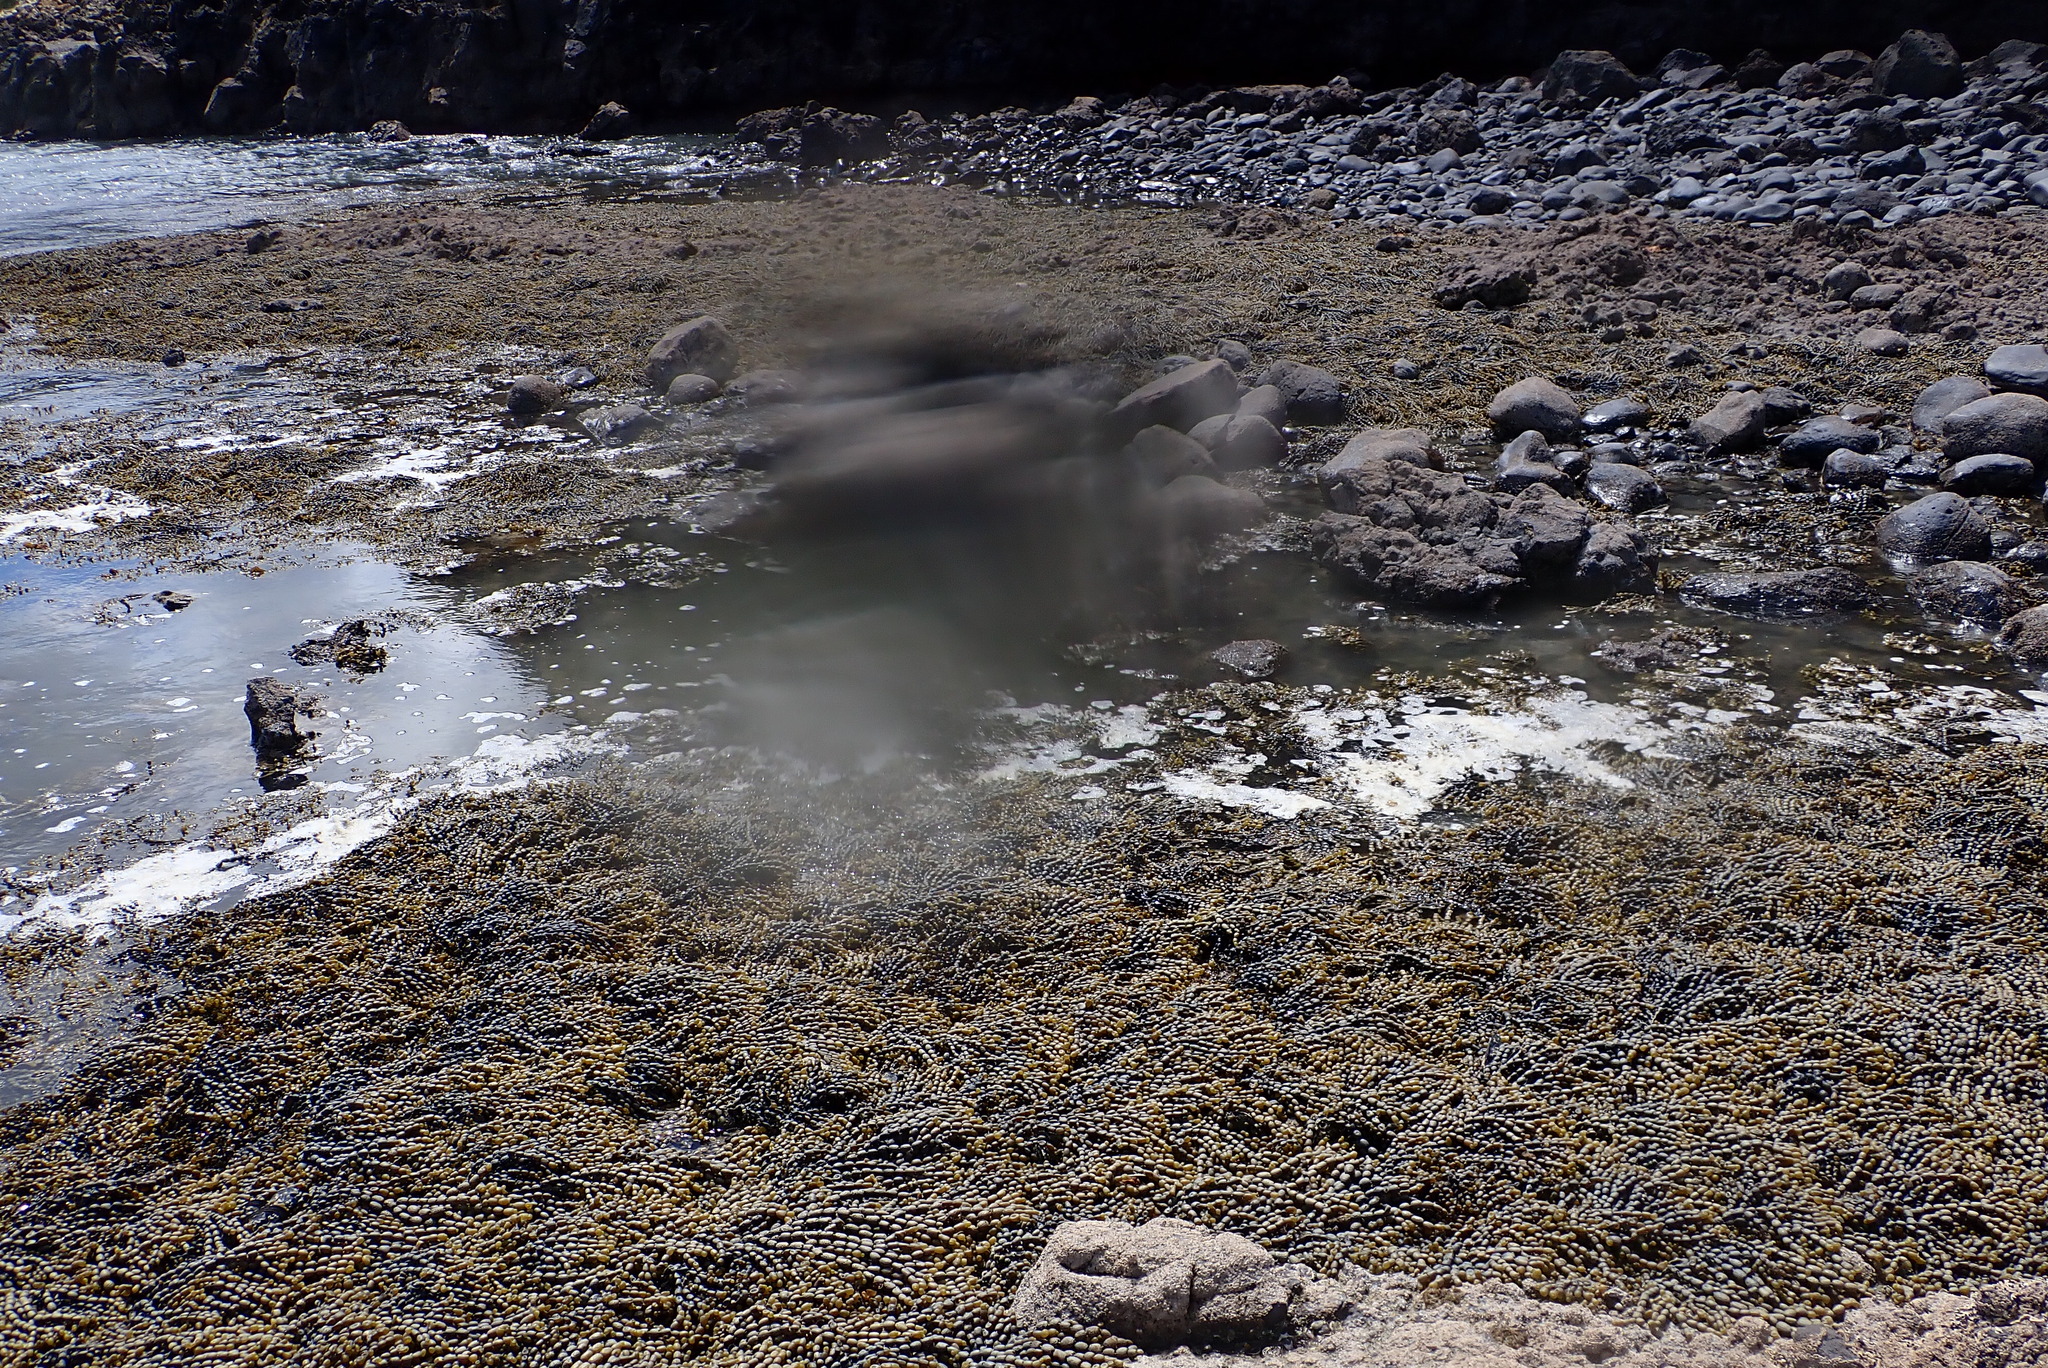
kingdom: Chromista
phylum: Ochrophyta
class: Phaeophyceae
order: Fucales
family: Hormosiraceae
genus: Hormosira
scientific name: Hormosira banksii
